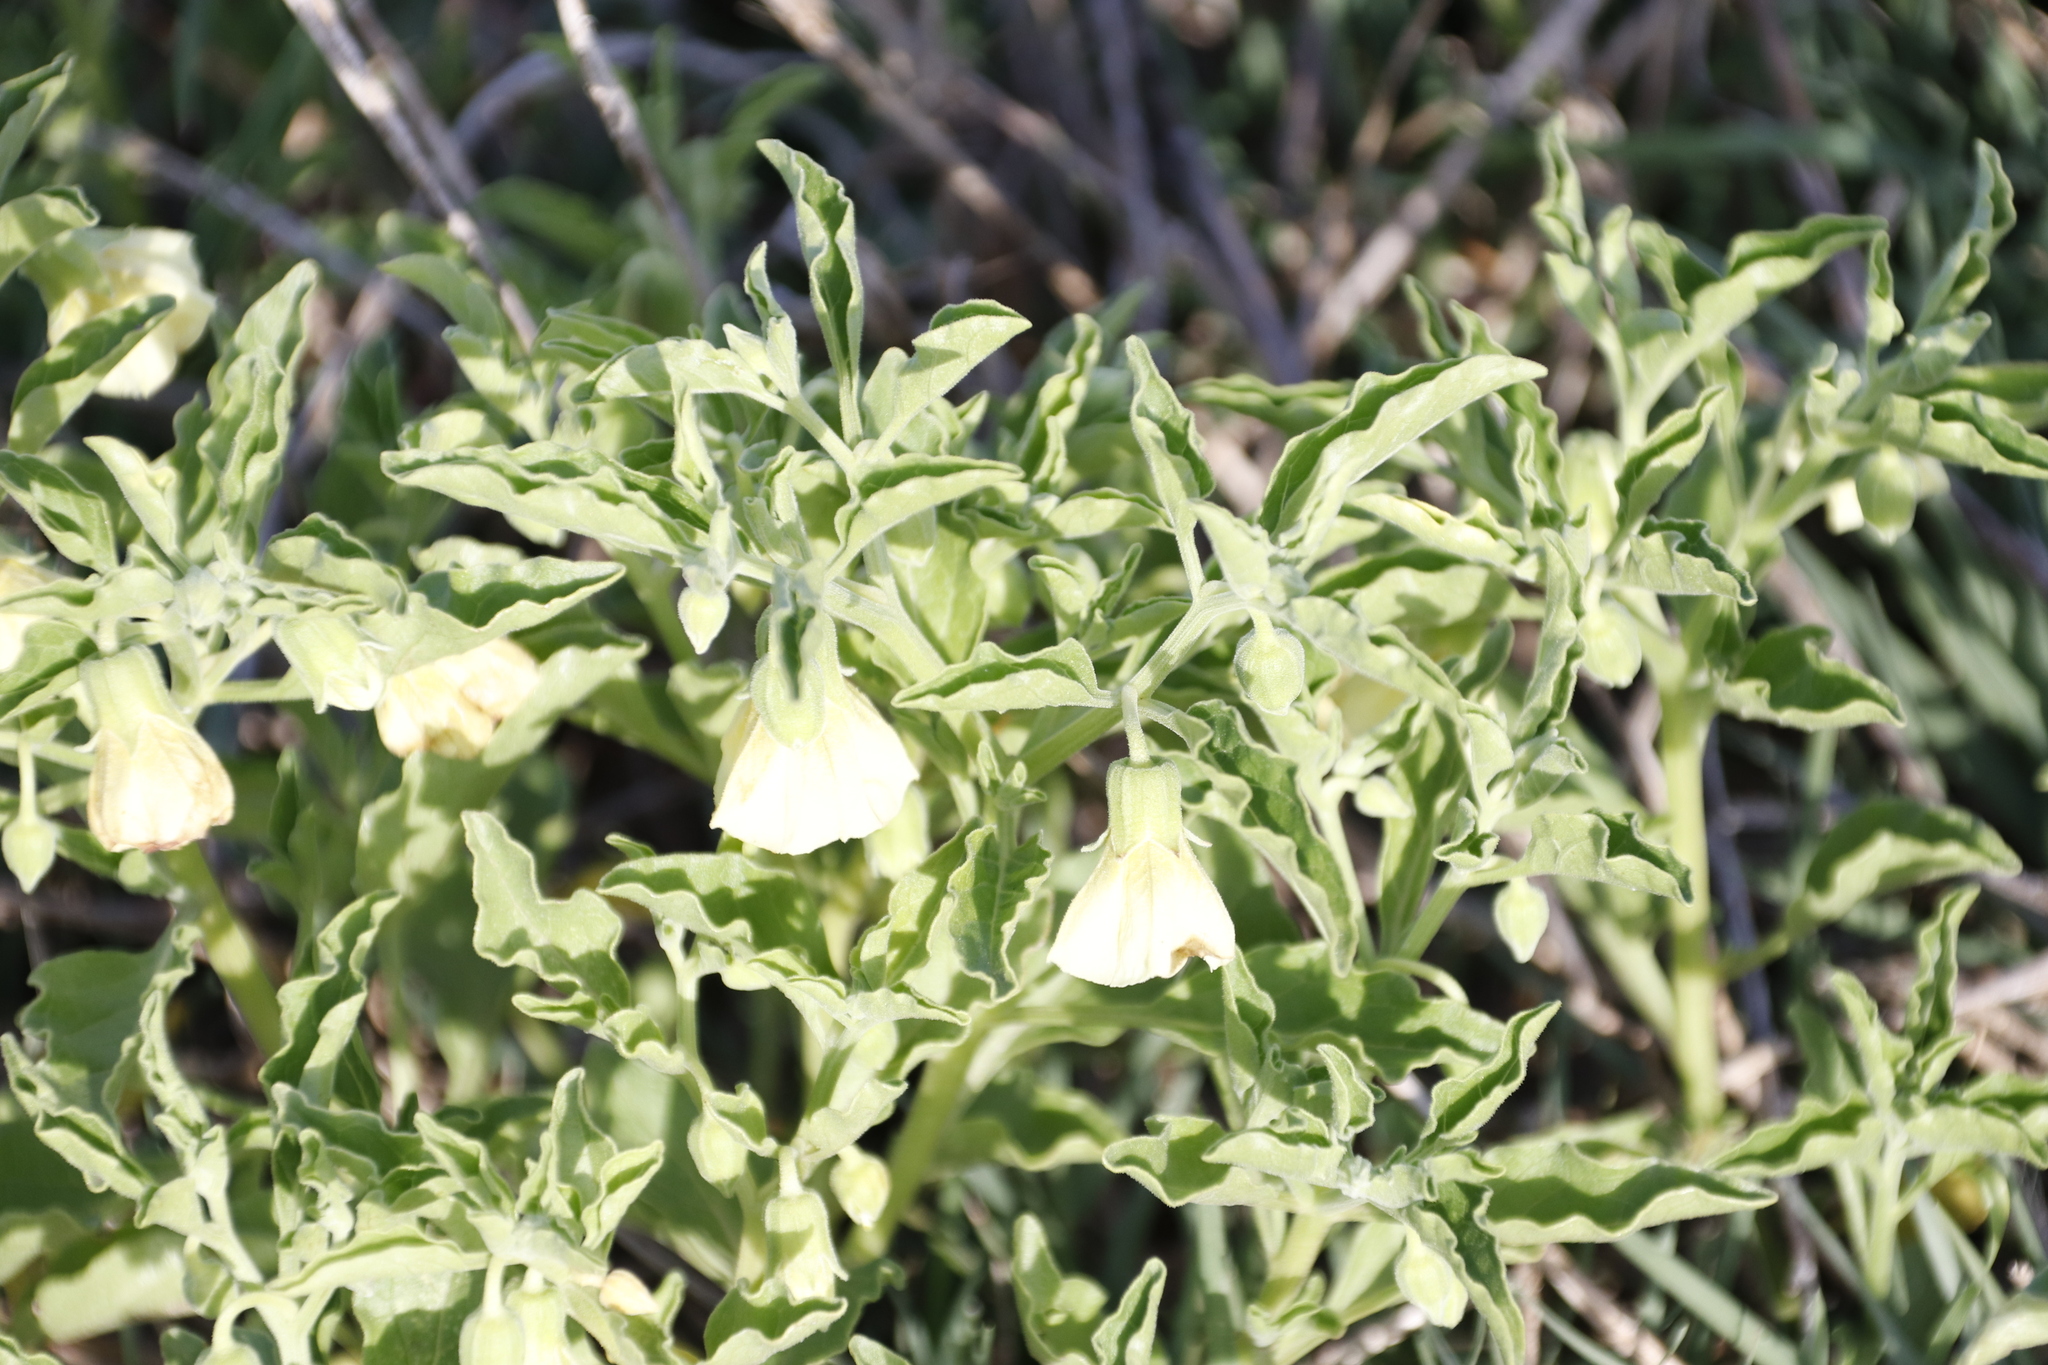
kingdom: Plantae
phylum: Tracheophyta
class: Magnoliopsida
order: Solanales
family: Solanaceae
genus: Physalis
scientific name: Physalis viscosa
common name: Stellate ground-cherry
